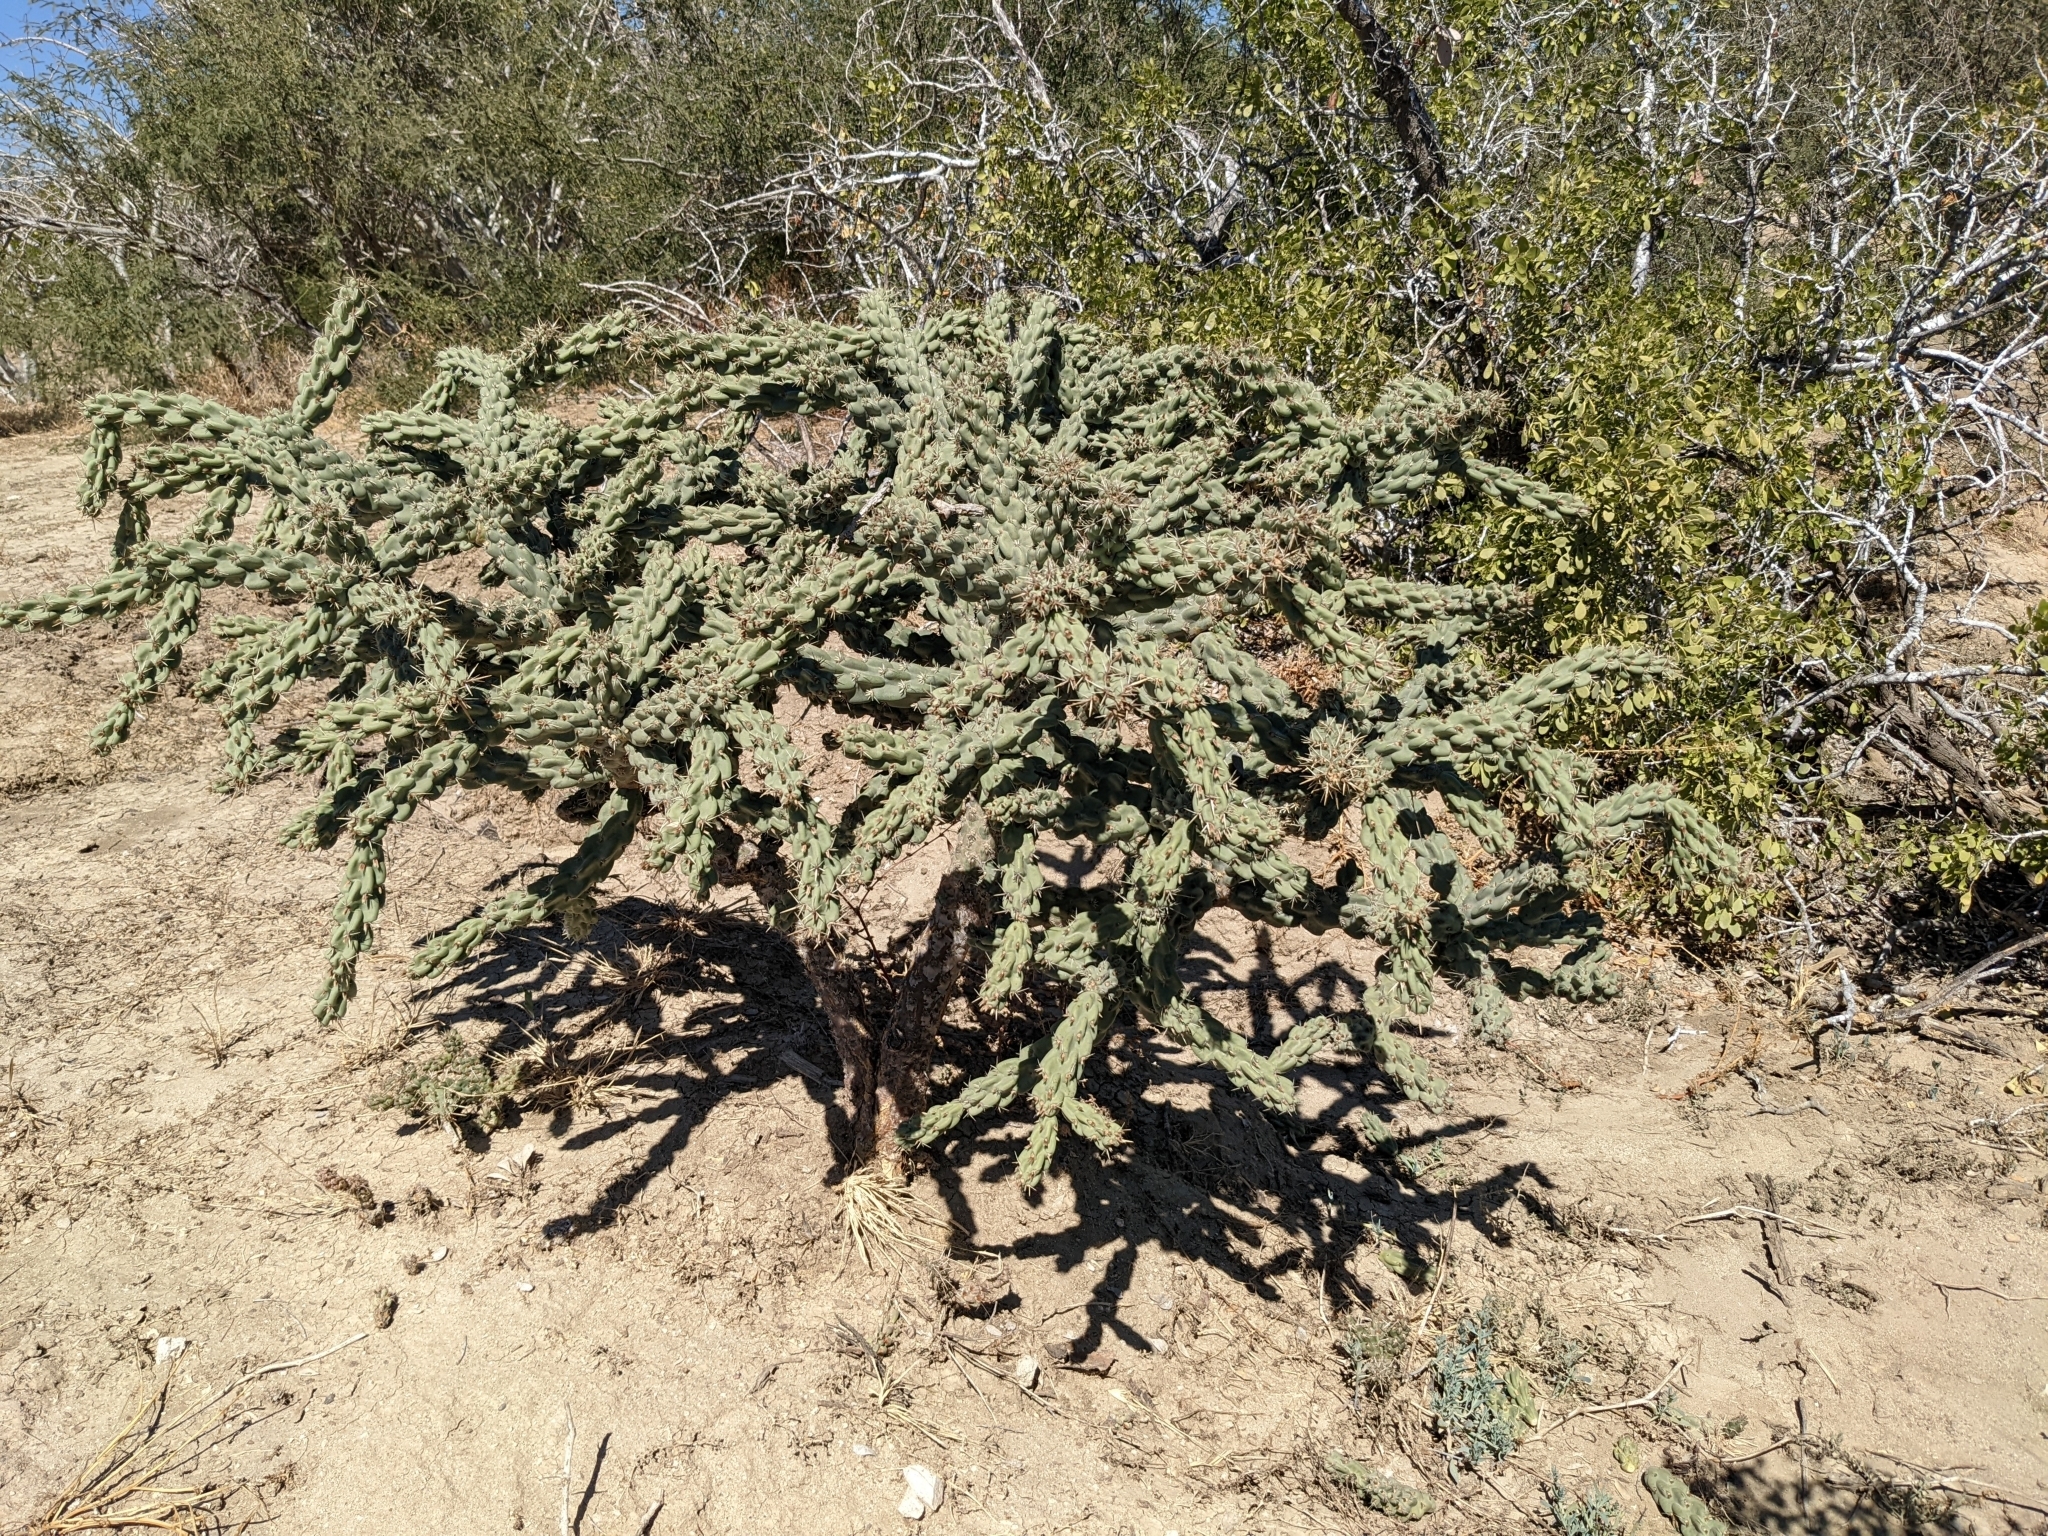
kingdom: Plantae
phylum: Tracheophyta
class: Magnoliopsida
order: Caryophyllales
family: Cactaceae
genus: Cylindropuntia
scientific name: Cylindropuntia cholla
